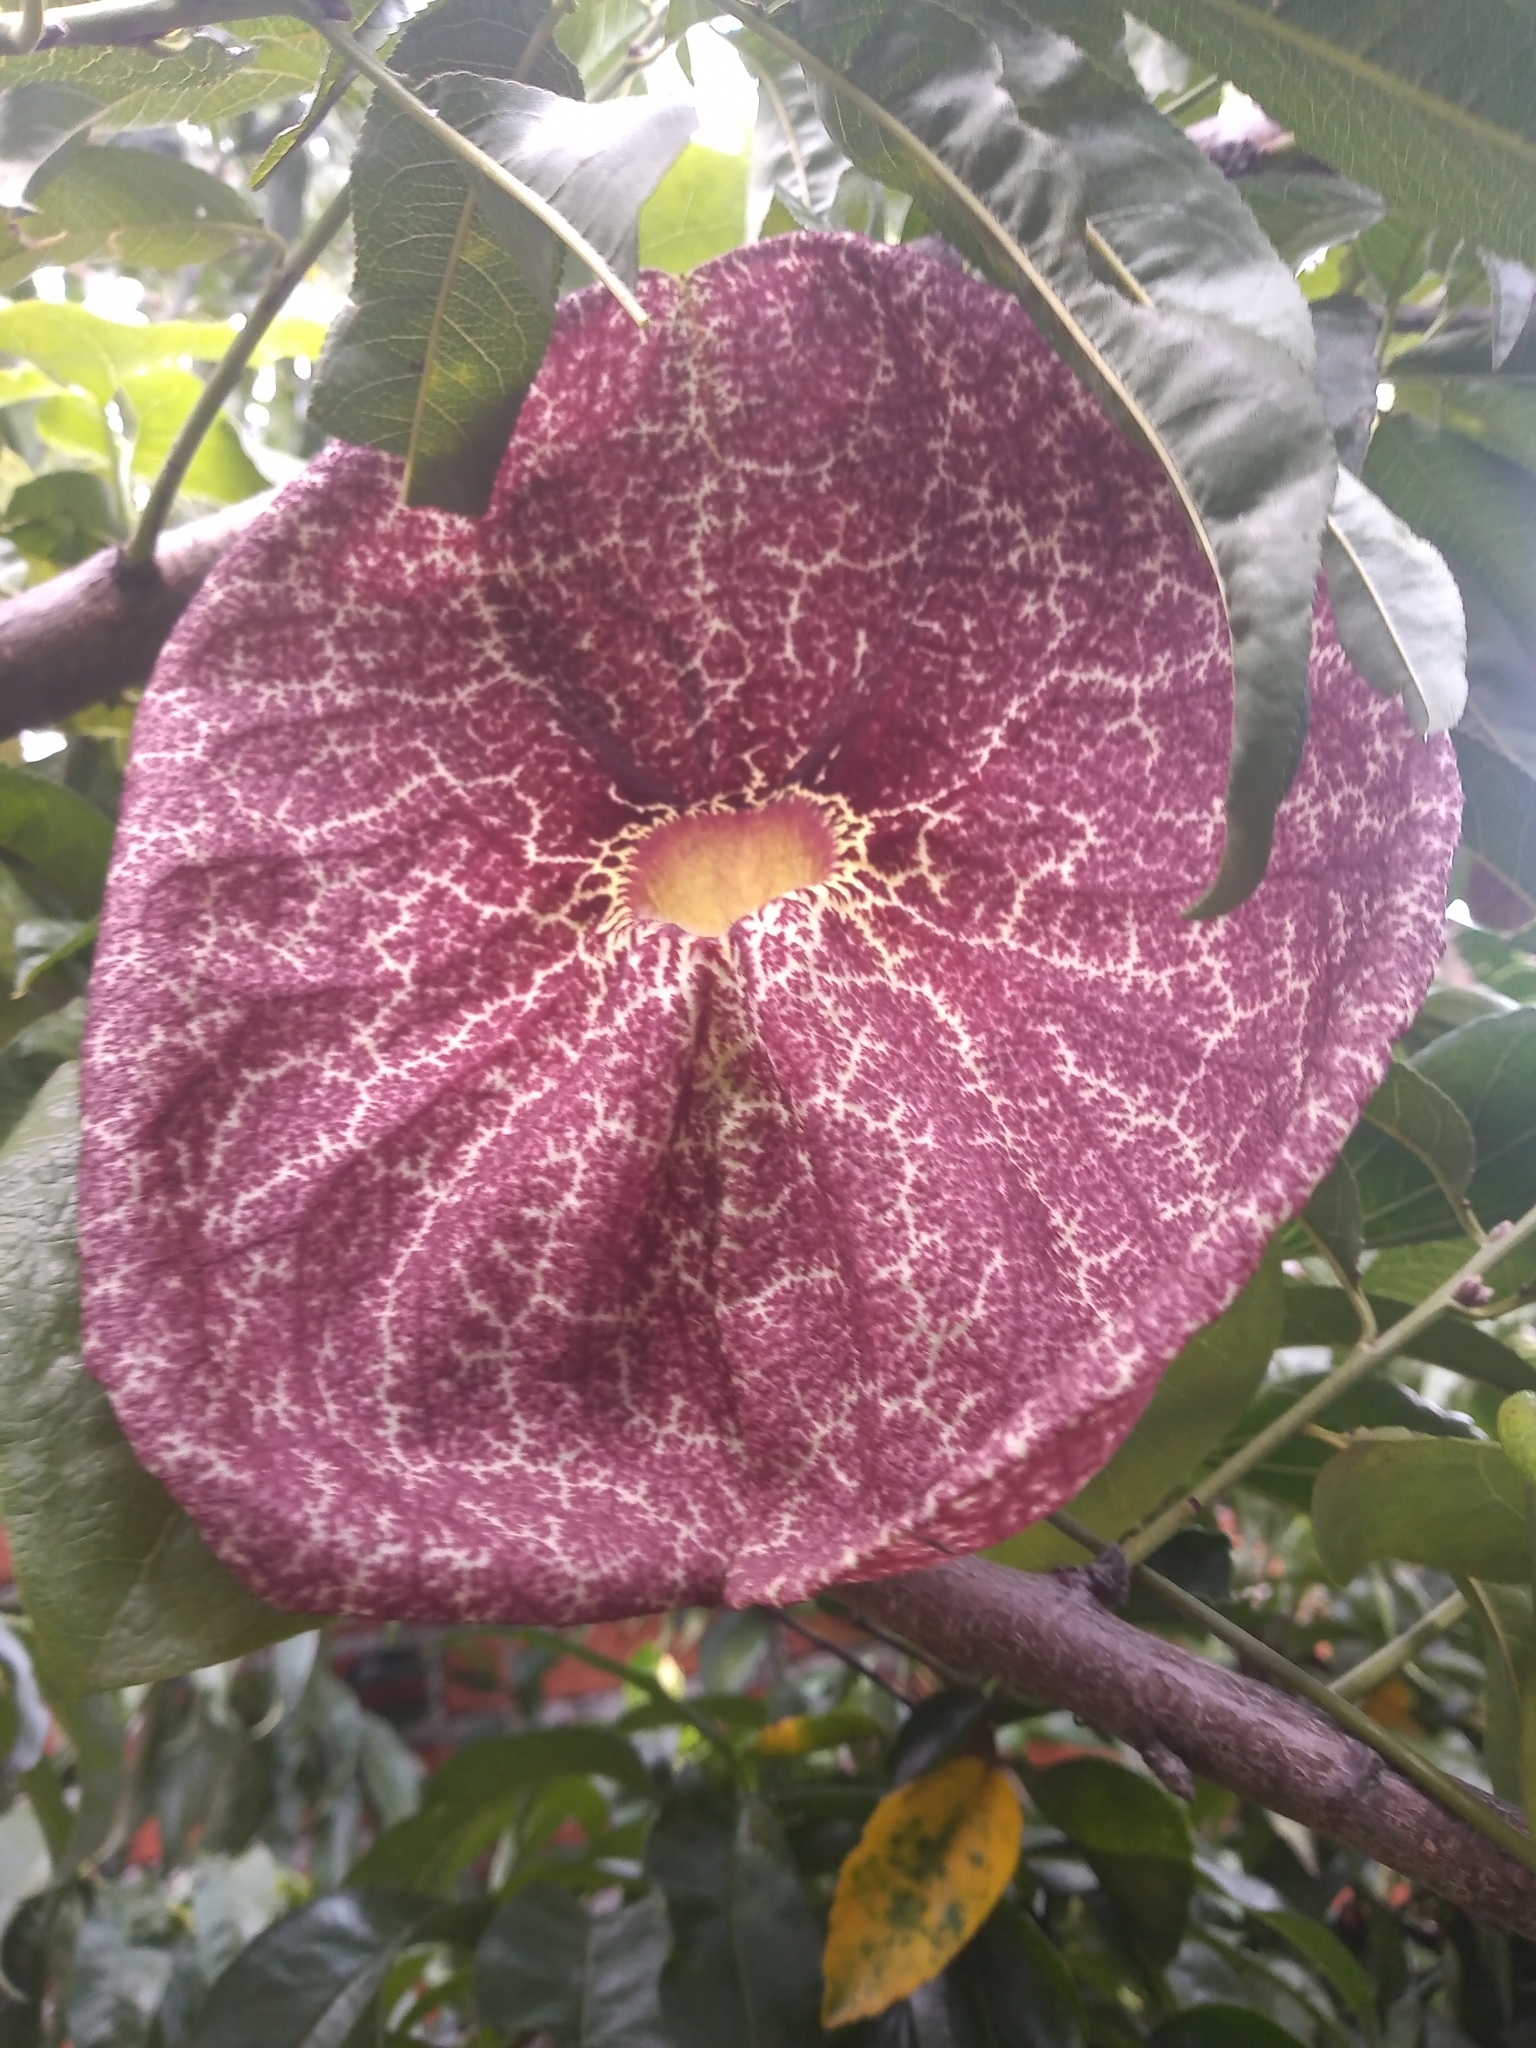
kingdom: Plantae
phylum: Tracheophyta
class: Magnoliopsida
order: Piperales
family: Aristolochiaceae
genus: Aristolochia
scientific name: Aristolochia gigantea
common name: Duckflower
